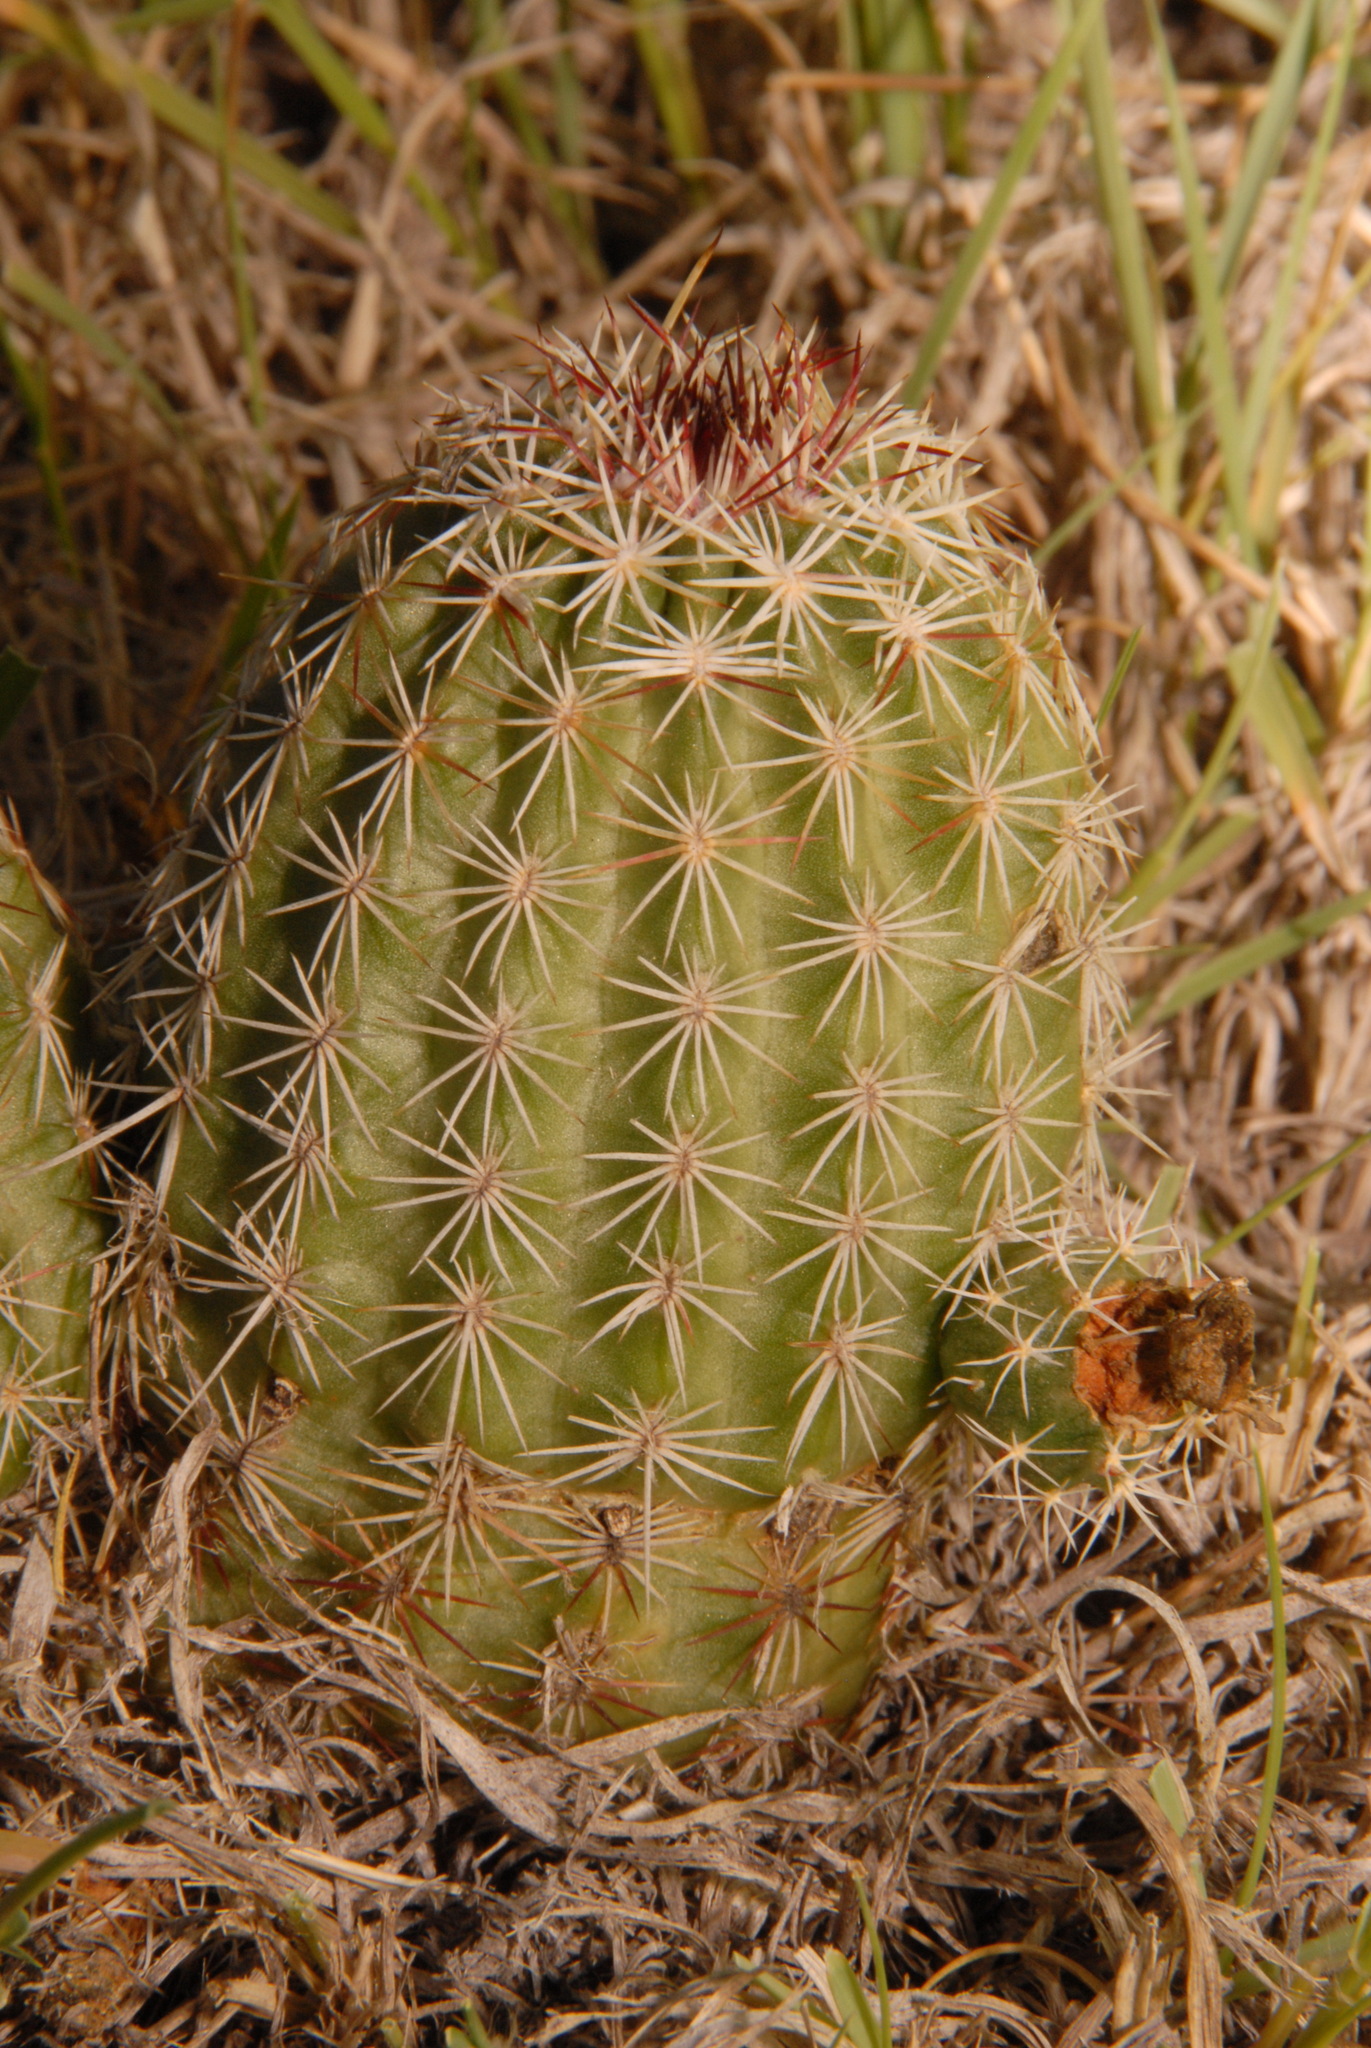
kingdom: Plantae
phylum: Tracheophyta
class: Magnoliopsida
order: Caryophyllales
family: Cactaceae
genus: Echinocereus
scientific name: Echinocereus viridiflorus
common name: Nylon hedgehog cactus
